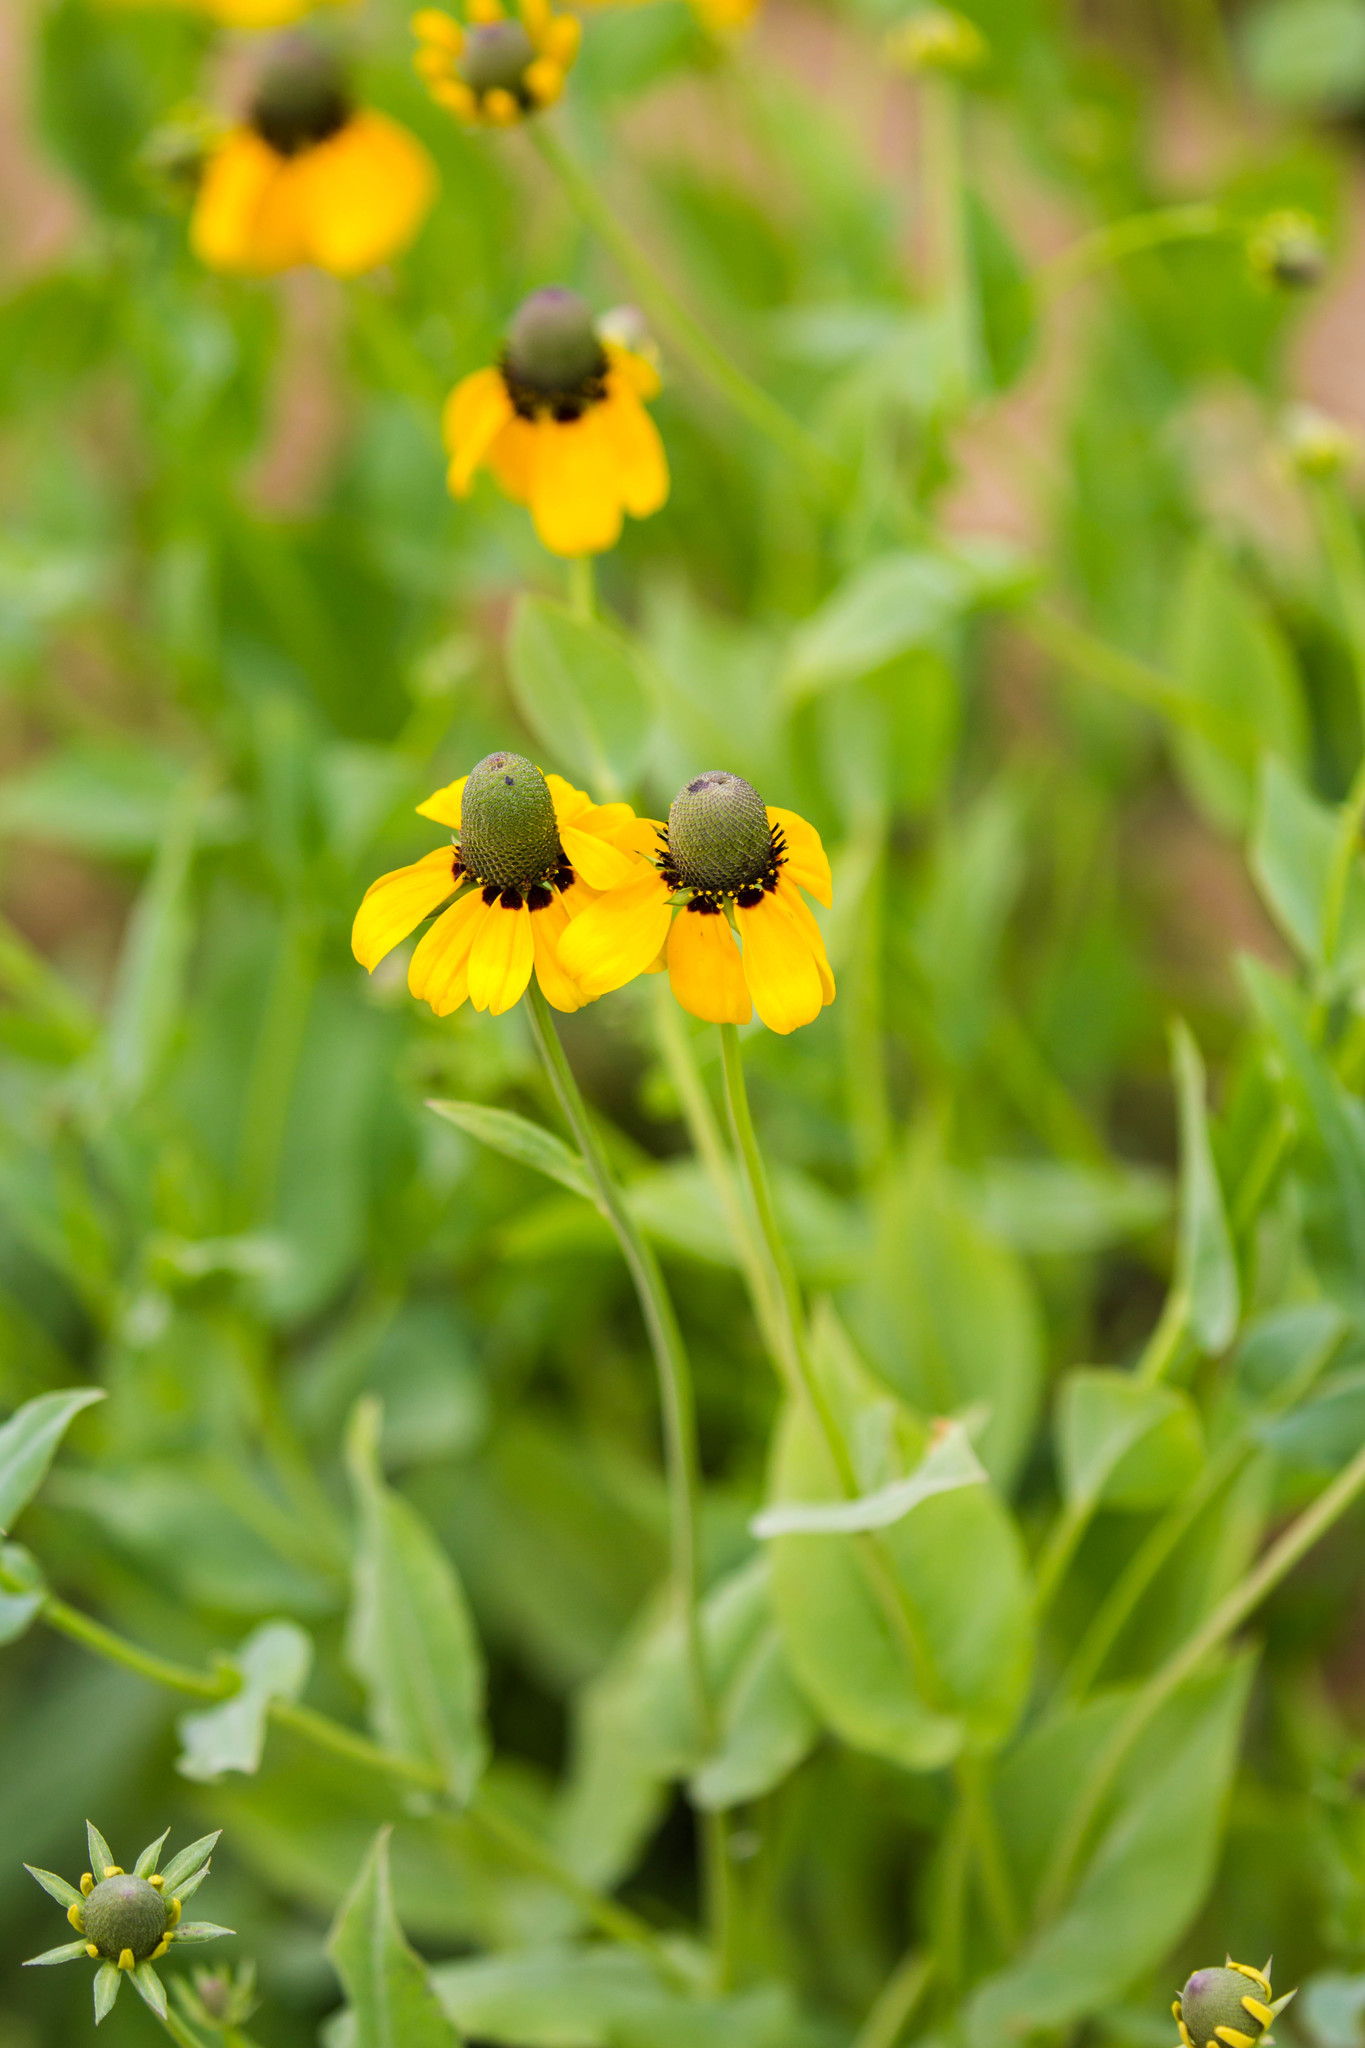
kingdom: Plantae
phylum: Tracheophyta
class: Magnoliopsida
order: Asterales
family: Asteraceae
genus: Rudbeckia
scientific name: Rudbeckia amplexicaulis
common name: Clasping-leaf coneflower
